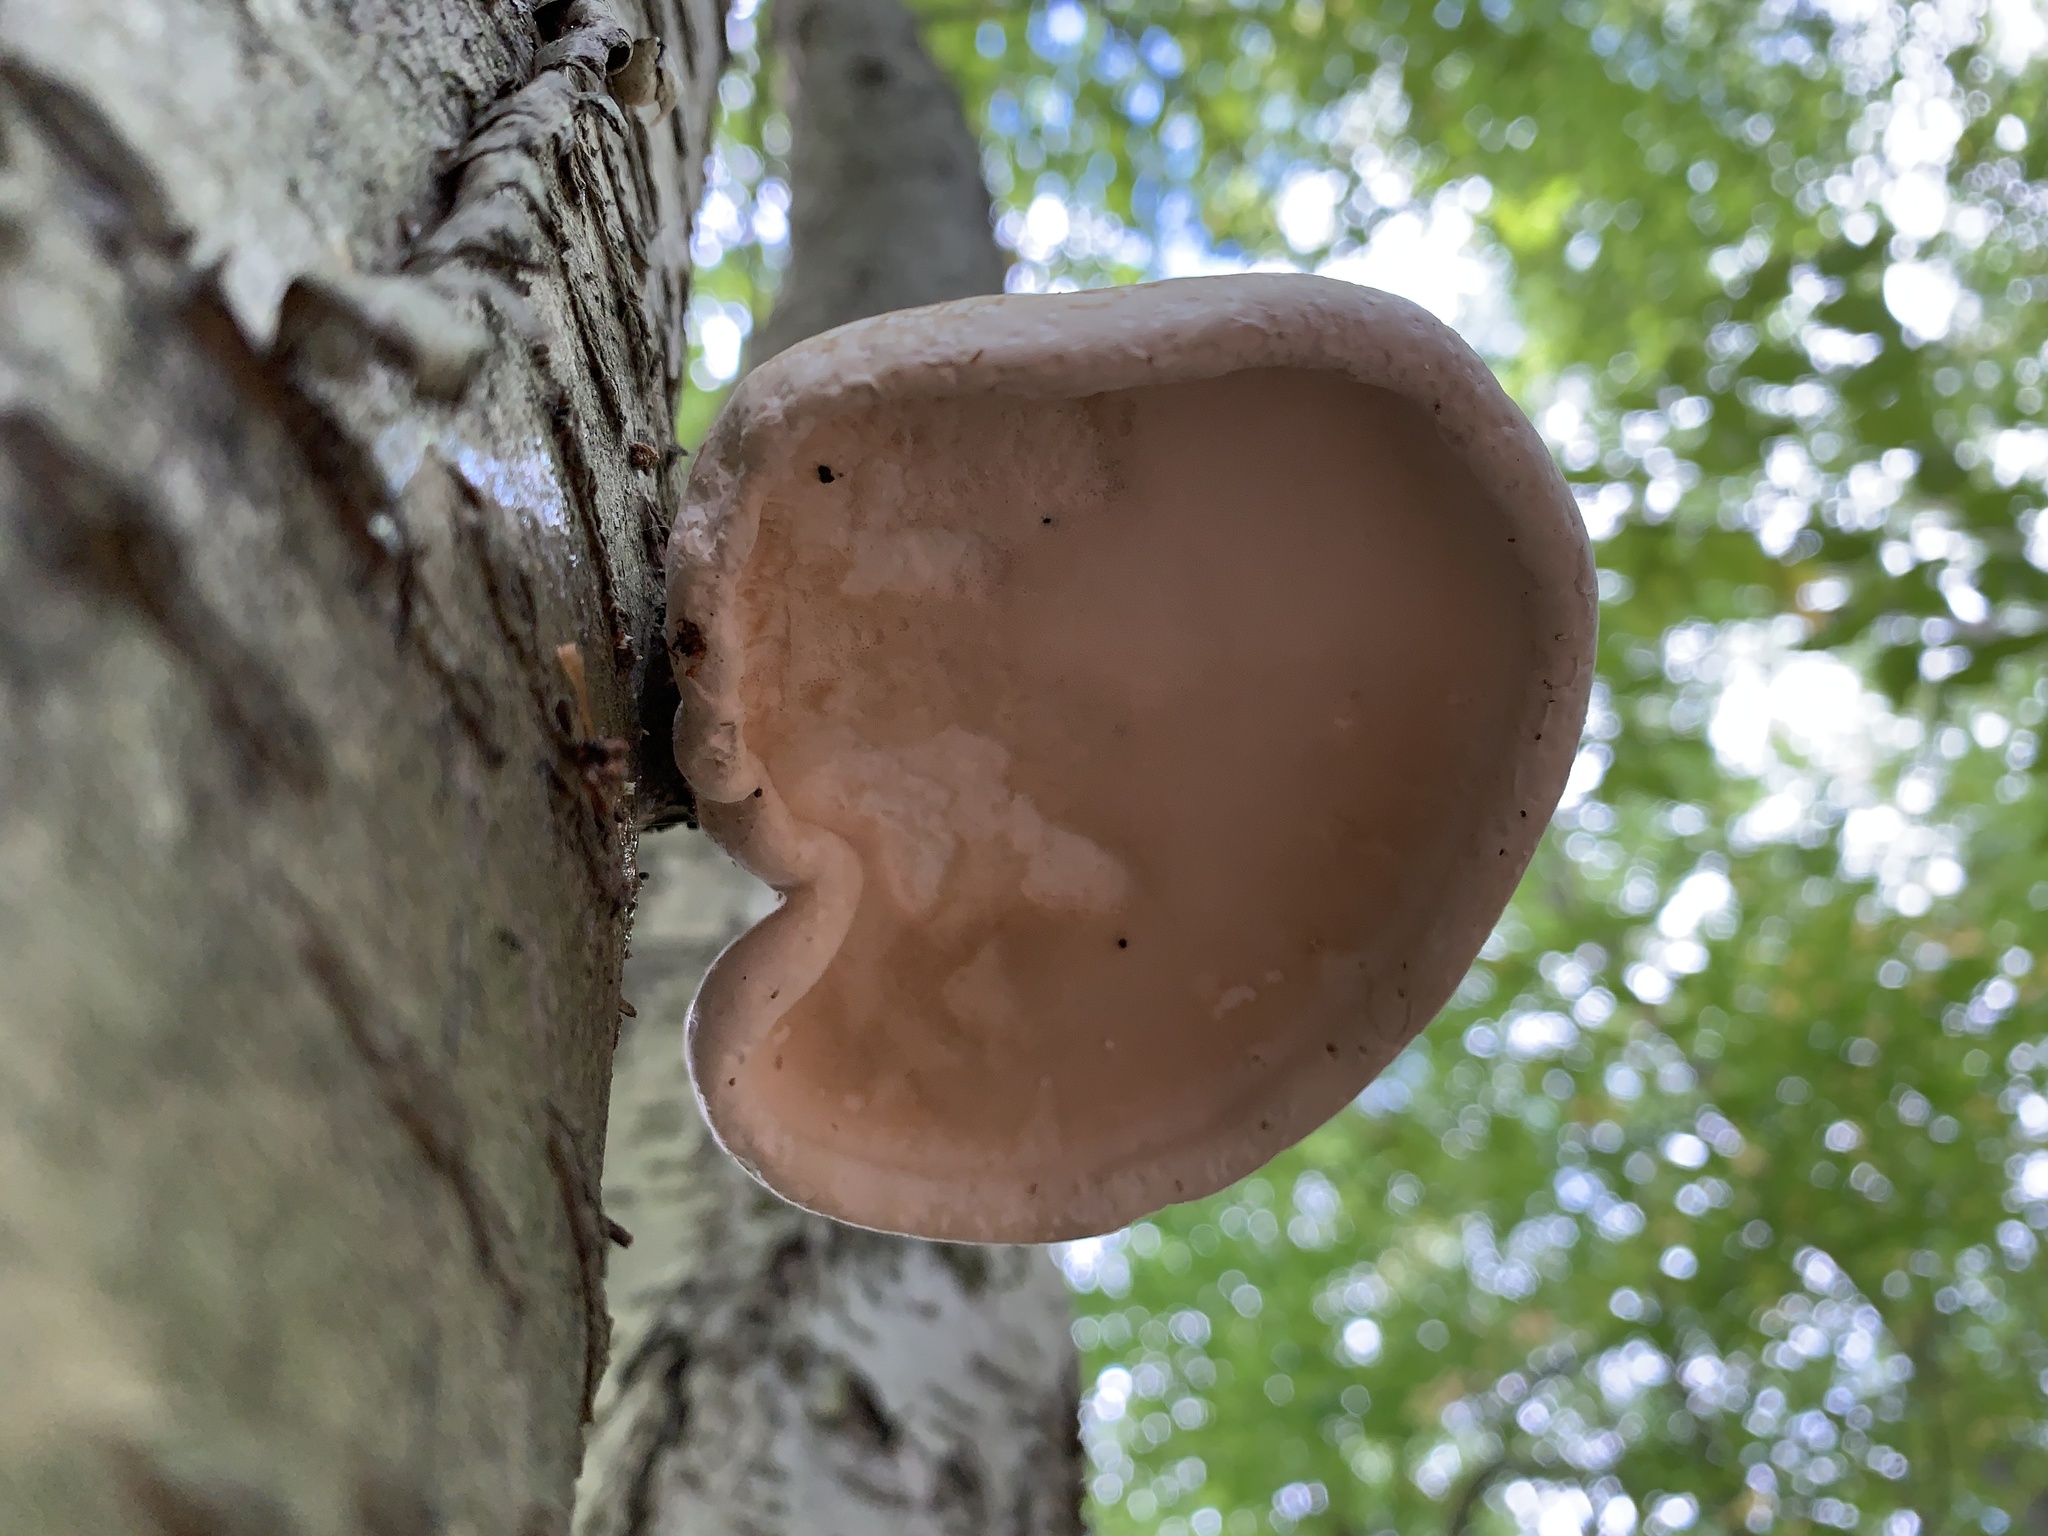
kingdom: Fungi
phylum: Basidiomycota
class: Agaricomycetes
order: Polyporales
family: Fomitopsidaceae
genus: Fomitopsis
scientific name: Fomitopsis betulina
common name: Birch polypore
